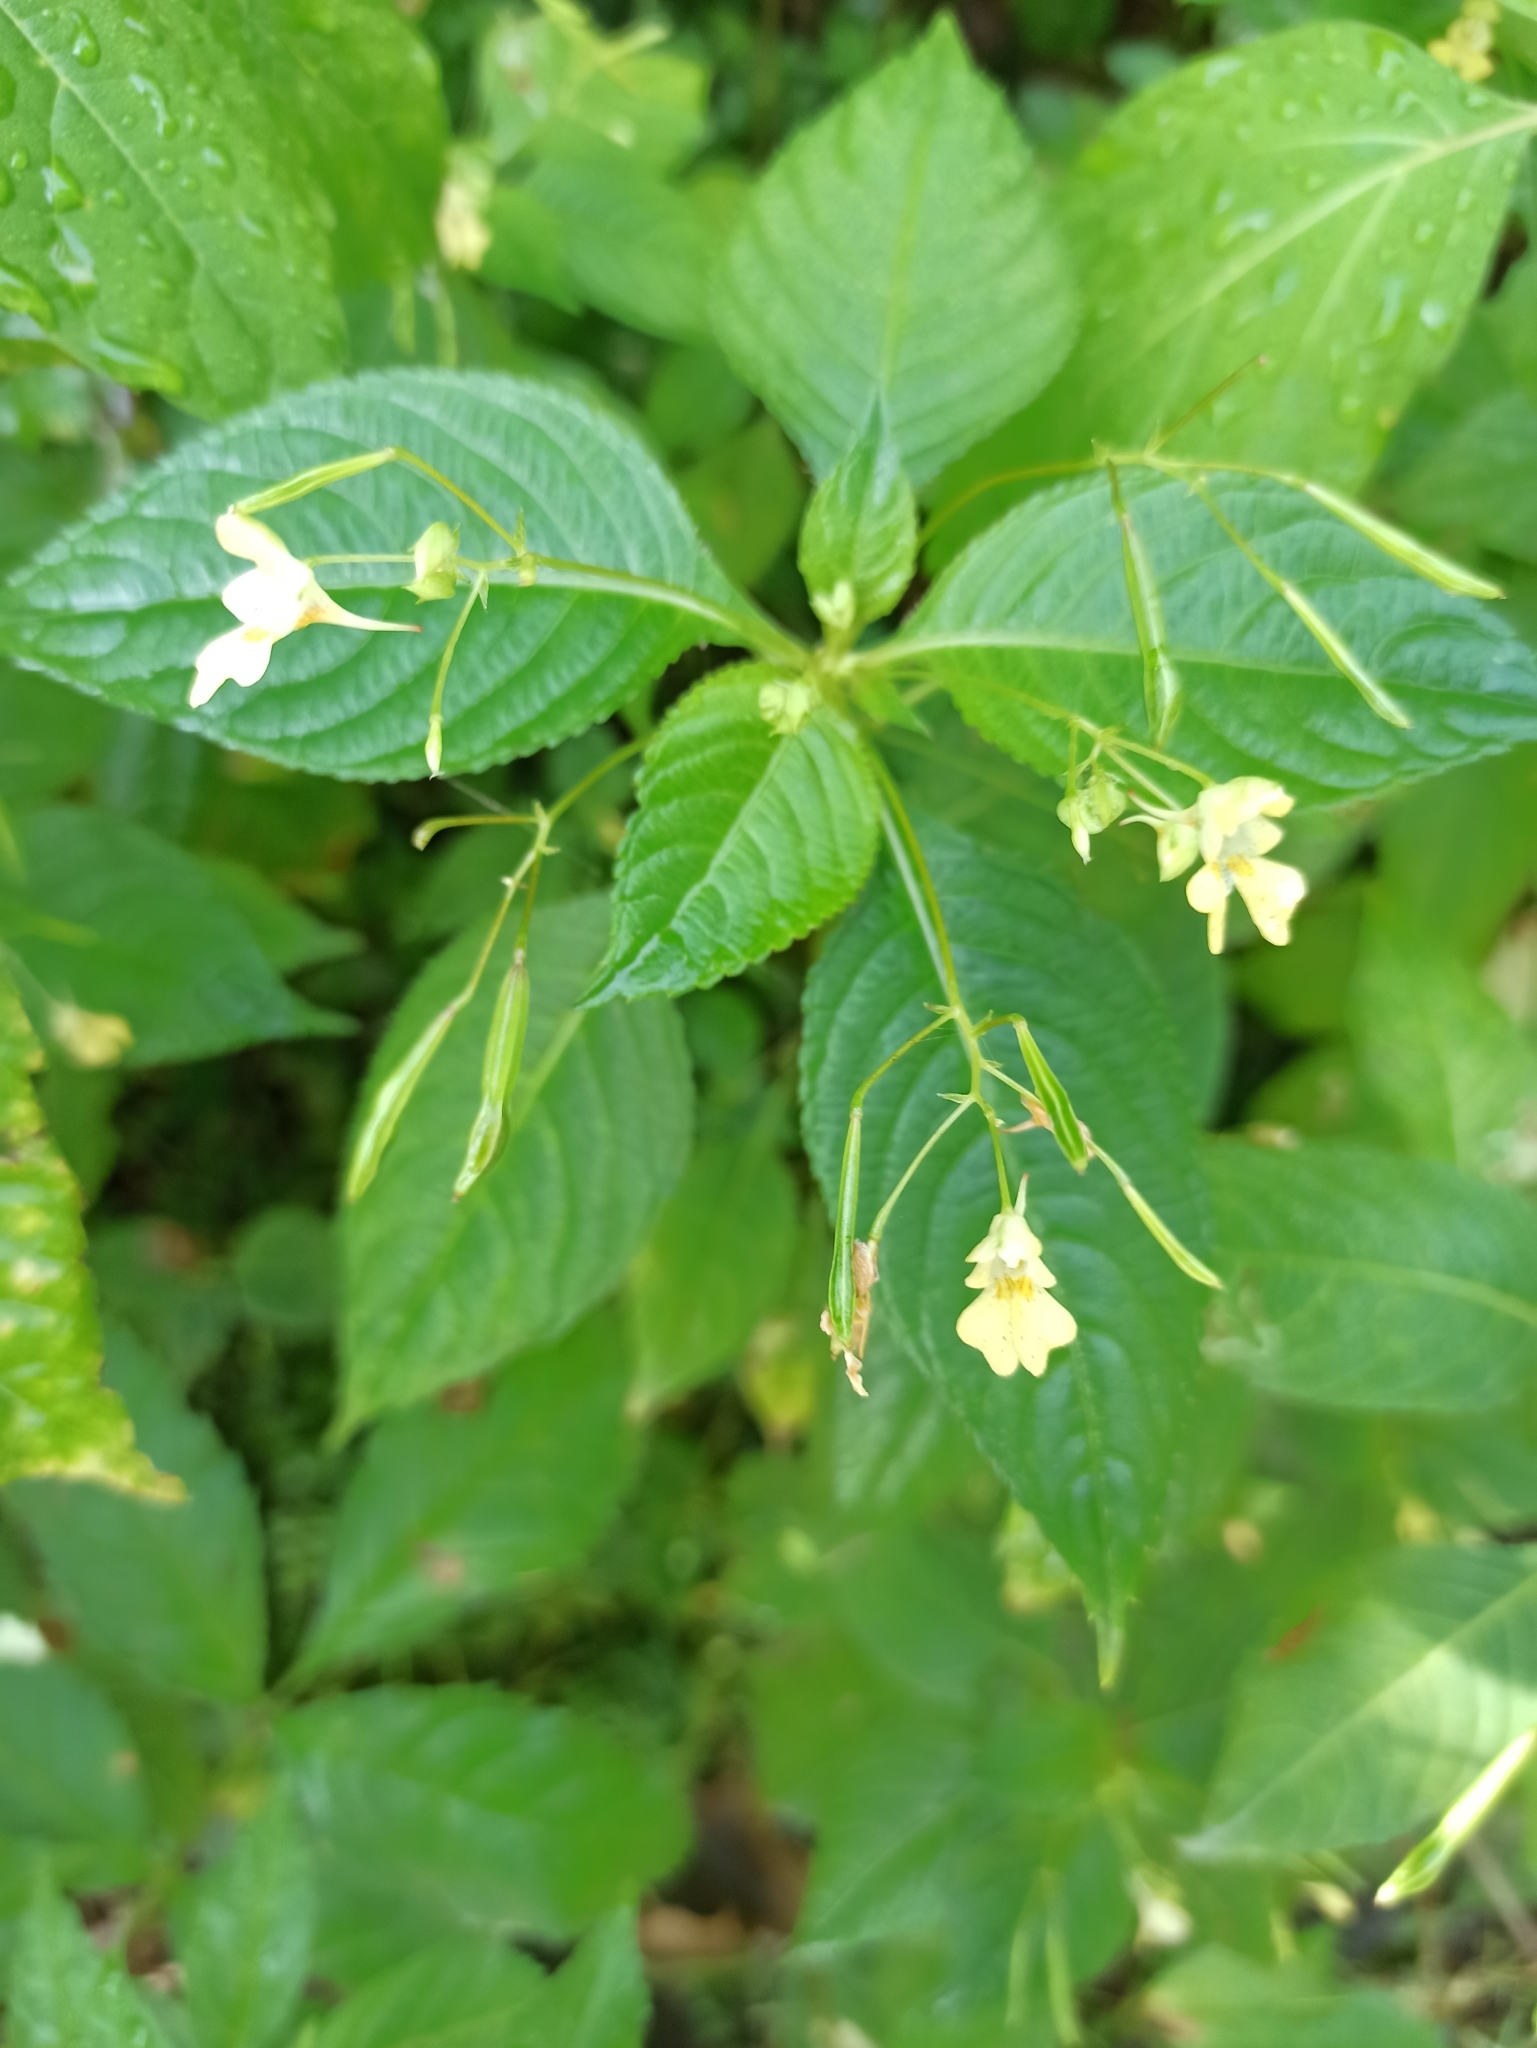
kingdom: Plantae
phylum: Tracheophyta
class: Magnoliopsida
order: Ericales
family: Balsaminaceae
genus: Impatiens
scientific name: Impatiens parviflora
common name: Small balsam
